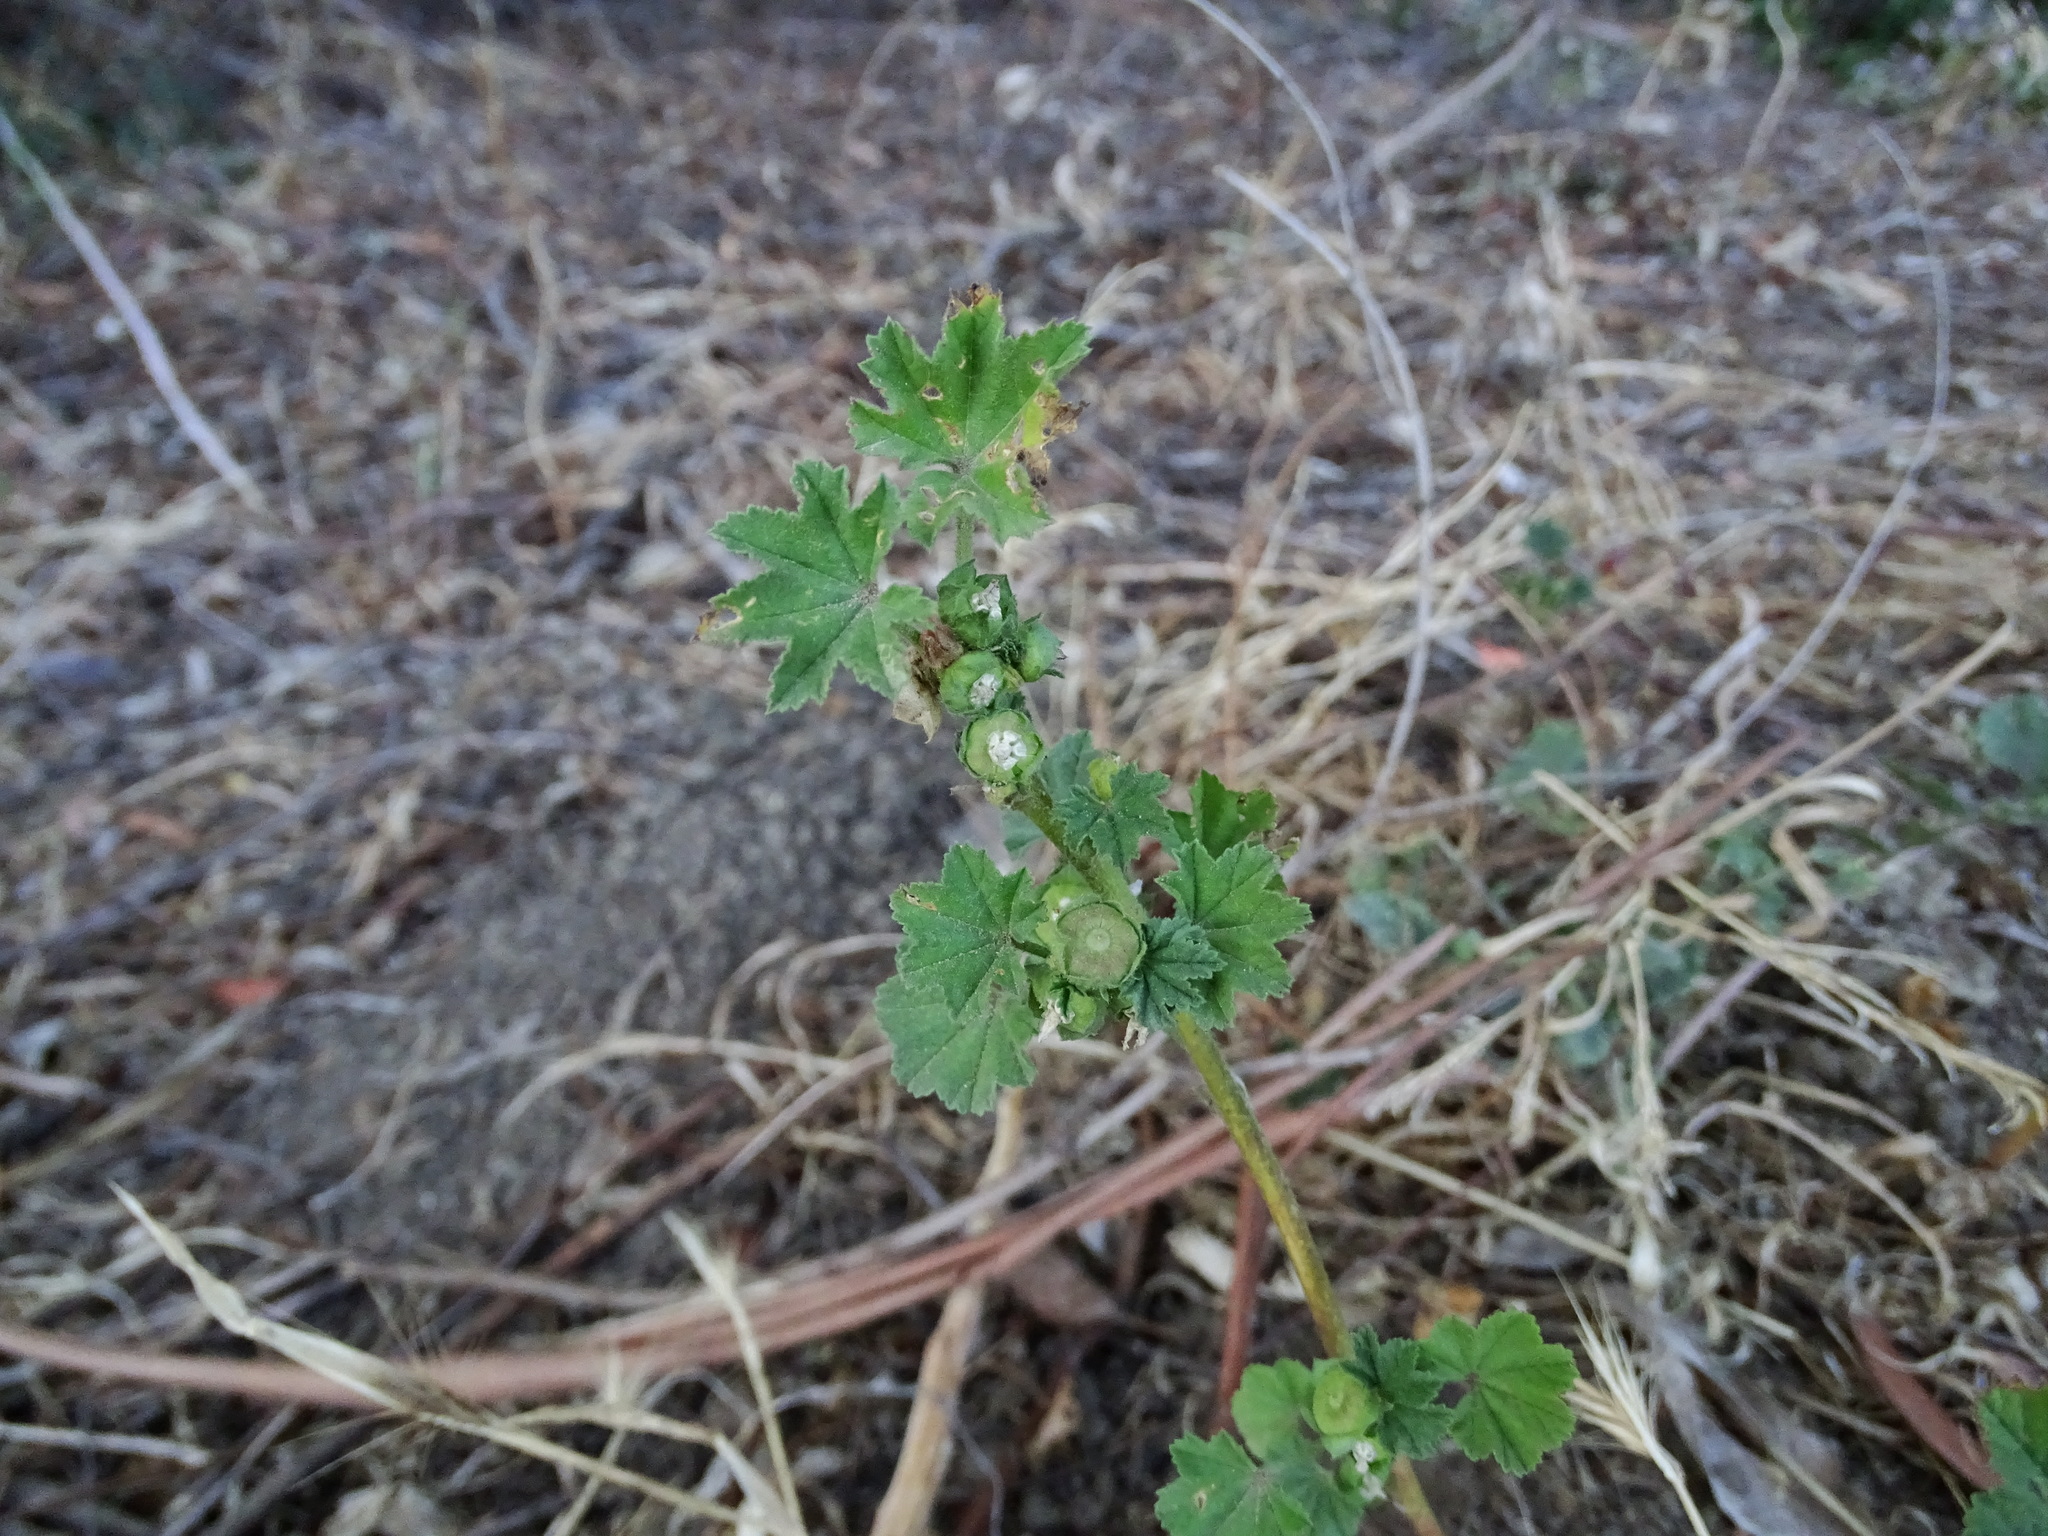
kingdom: Plantae
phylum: Tracheophyta
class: Magnoliopsida
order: Malvales
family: Malvaceae
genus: Malva
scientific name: Malva parviflora
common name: Least mallow
